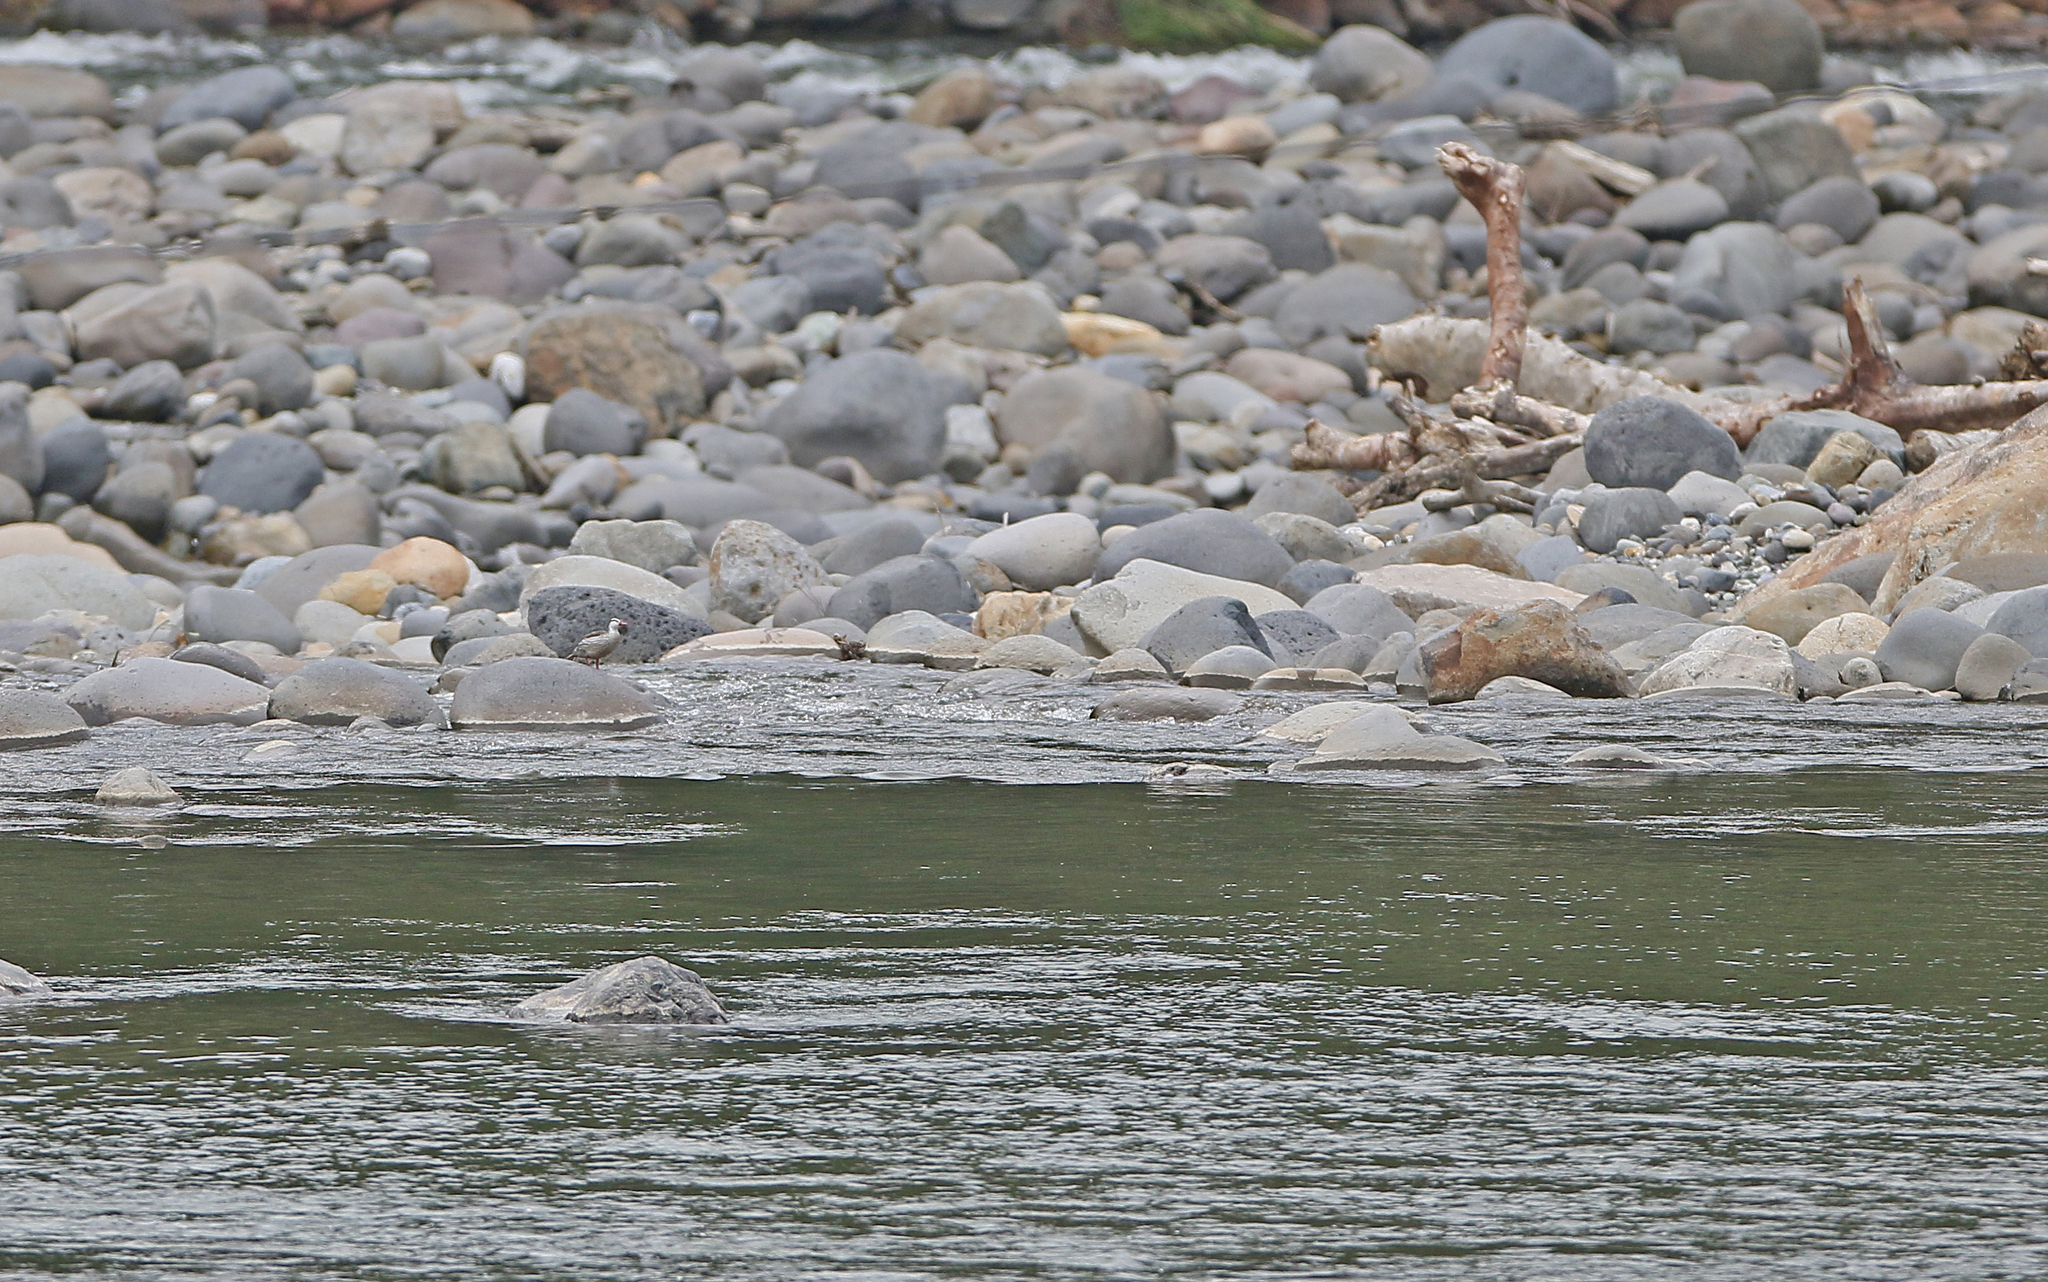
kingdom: Animalia
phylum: Chordata
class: Aves
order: Anseriformes
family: Anatidae
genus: Merganetta
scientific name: Merganetta armata
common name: Torrent duck
